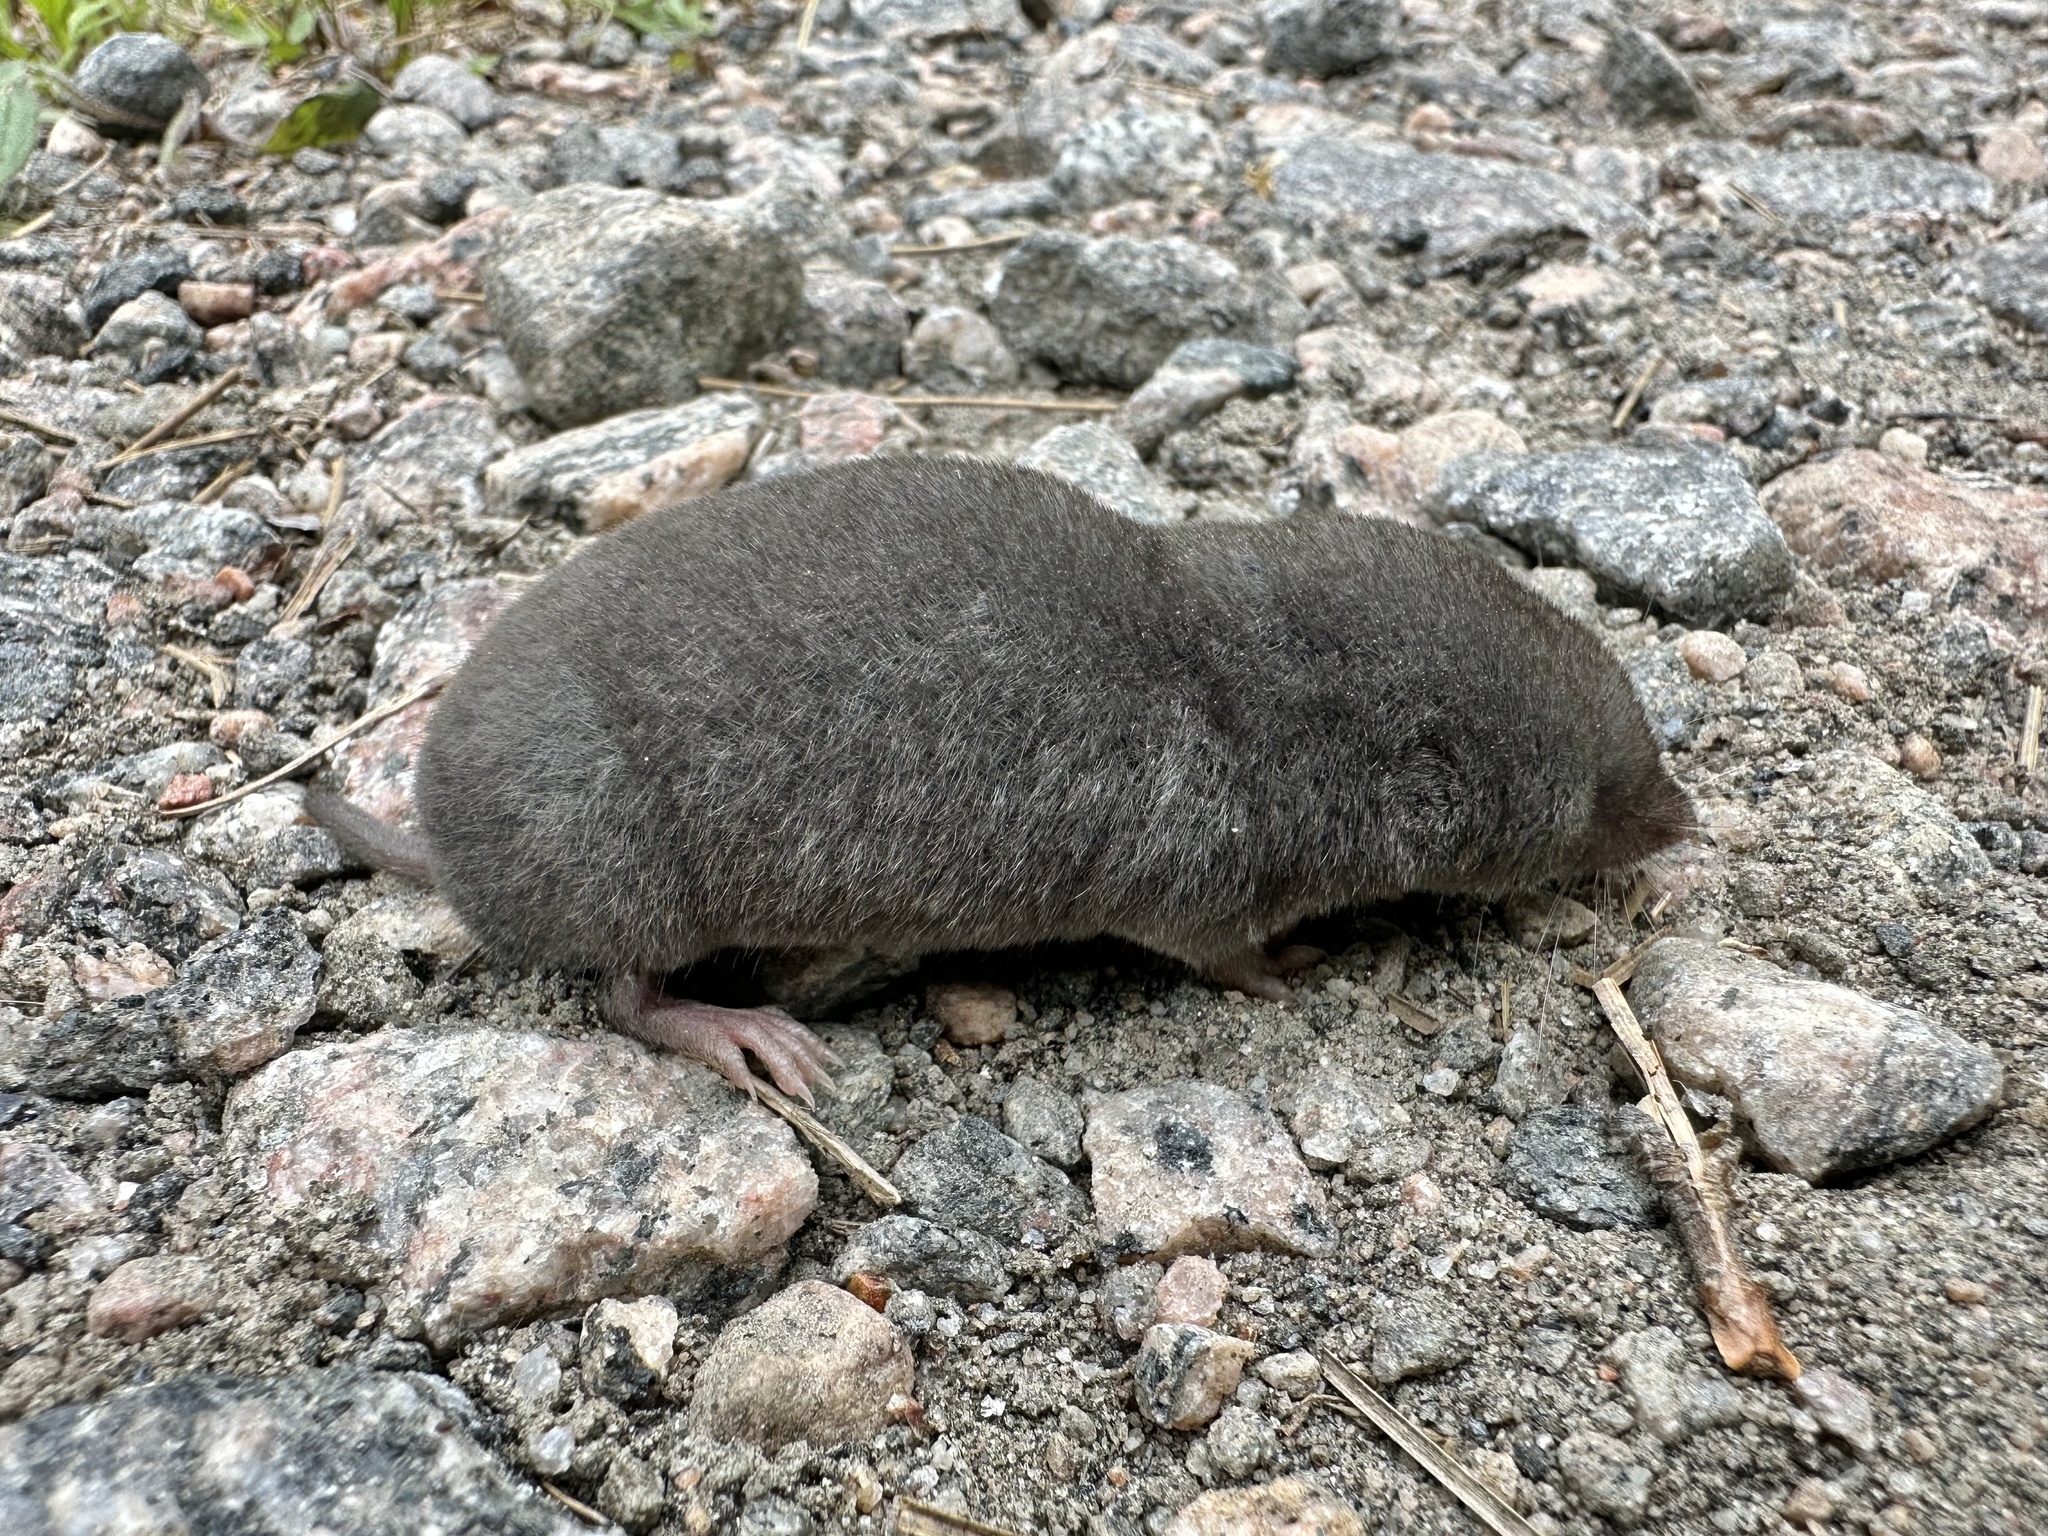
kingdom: Animalia
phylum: Chordata
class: Mammalia
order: Soricomorpha
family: Soricidae
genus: Blarina
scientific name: Blarina brevicauda
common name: Northern short-tailed shrew
